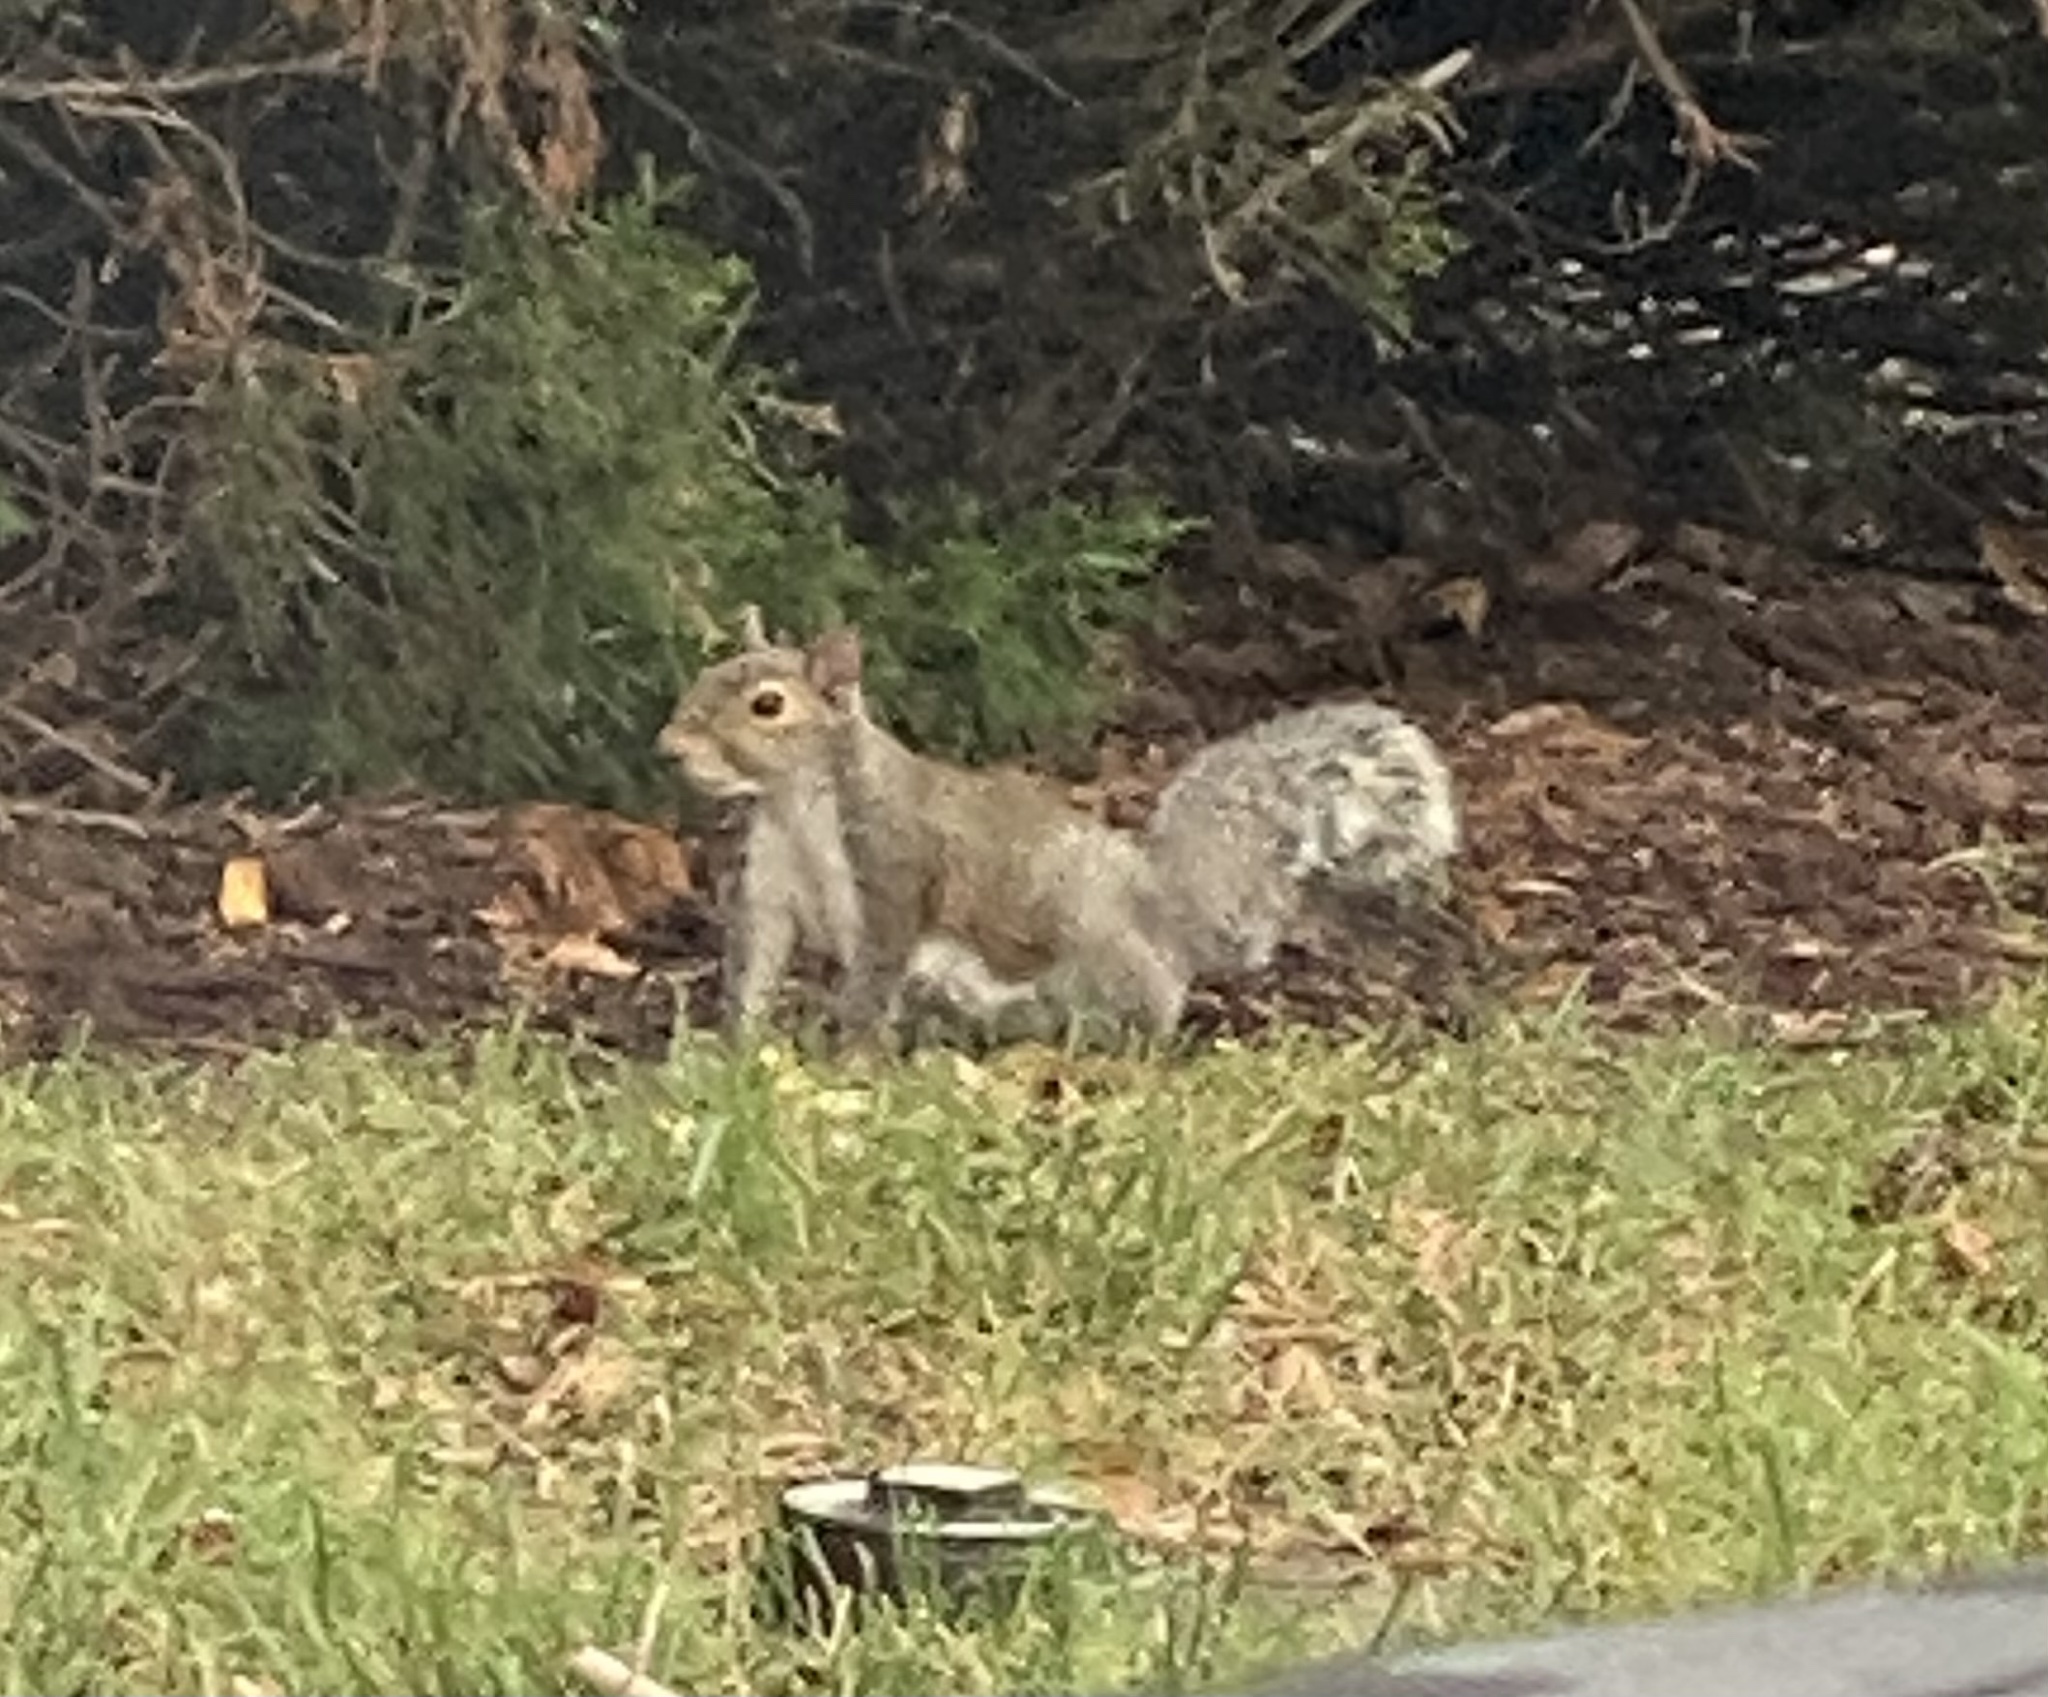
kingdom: Animalia
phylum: Chordata
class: Mammalia
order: Rodentia
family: Sciuridae
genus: Sciurus
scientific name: Sciurus carolinensis
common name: Eastern gray squirrel
